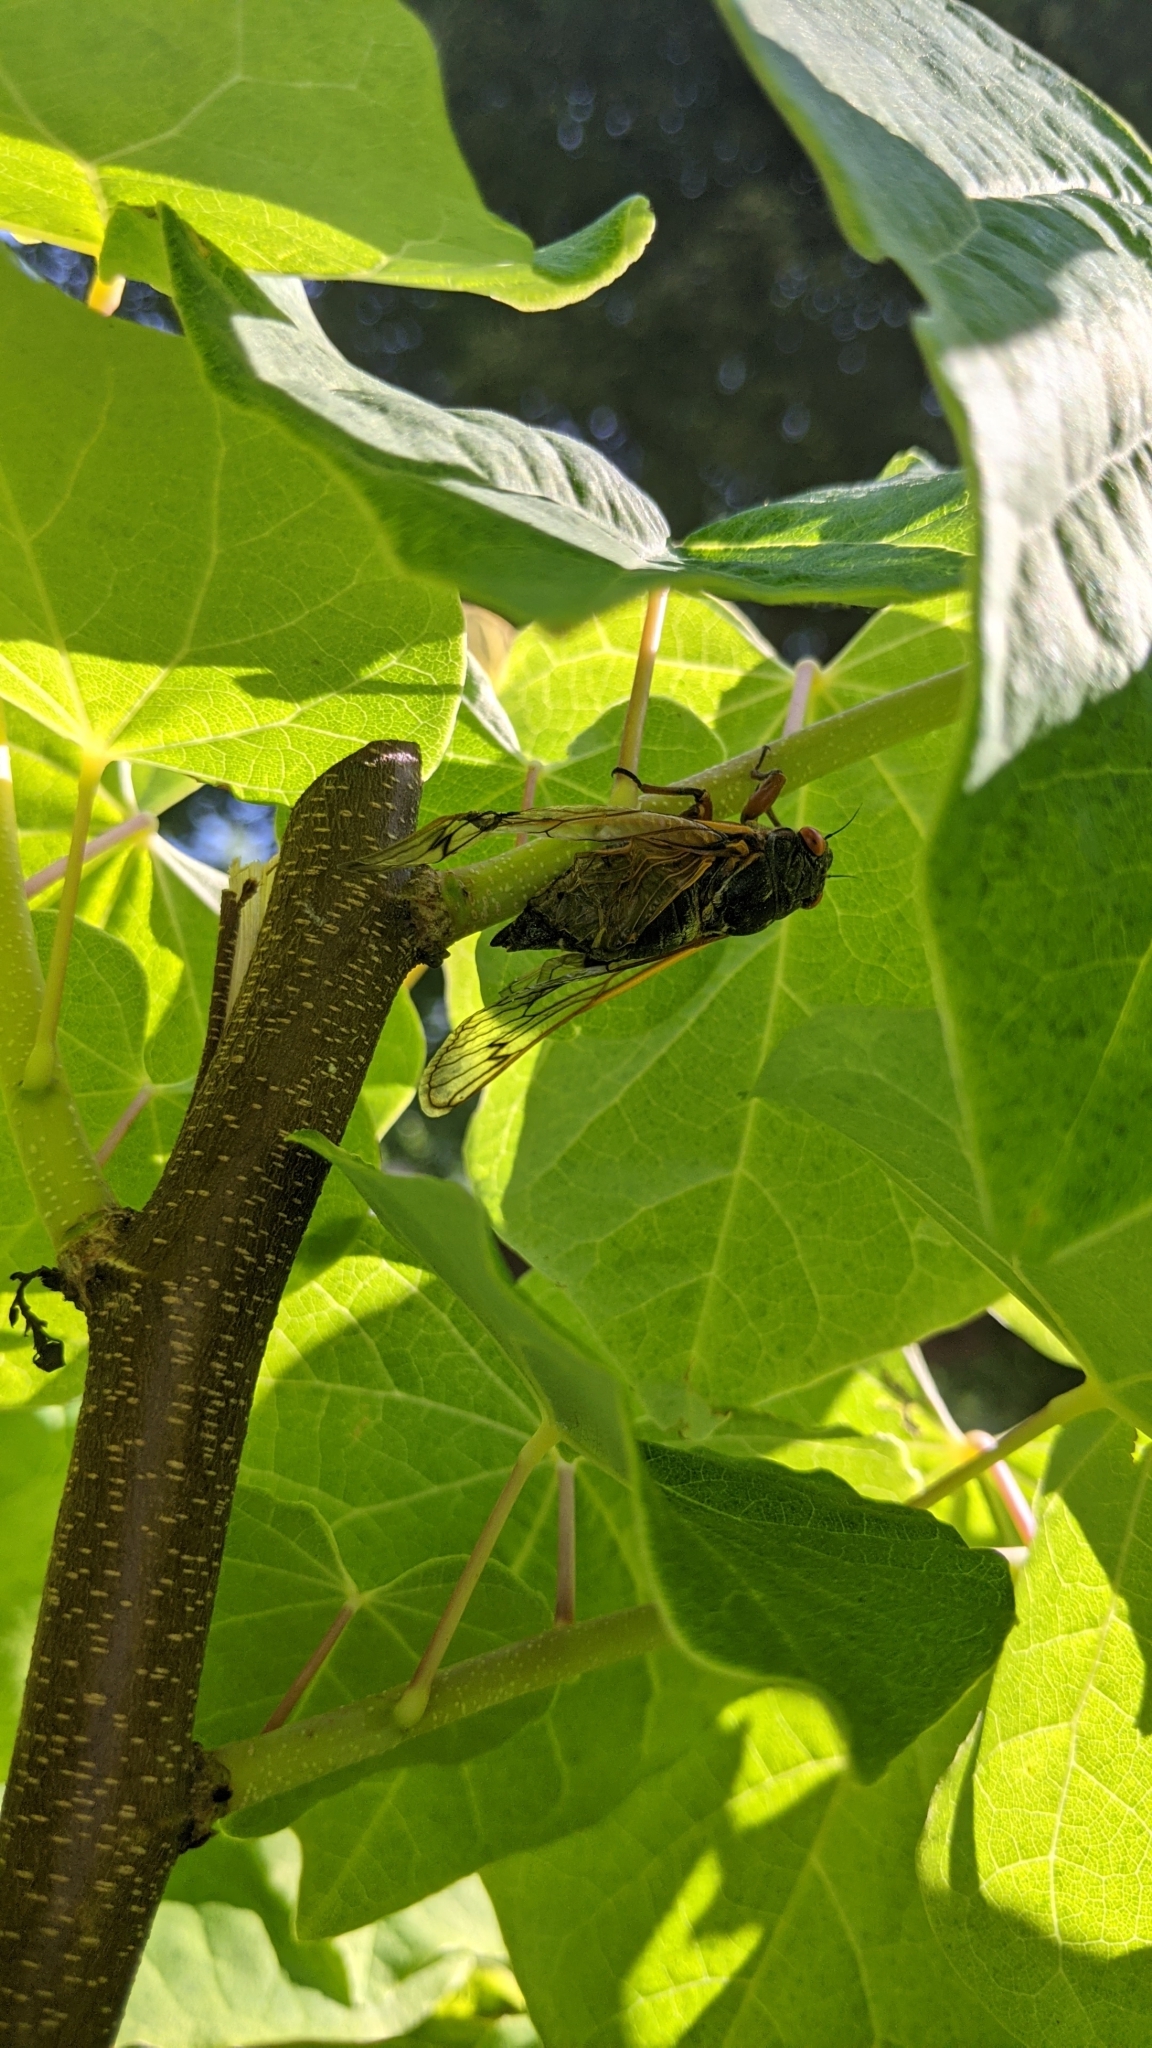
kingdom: Animalia
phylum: Arthropoda
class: Insecta
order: Hemiptera
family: Cicadidae
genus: Magicicada
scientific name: Magicicada
